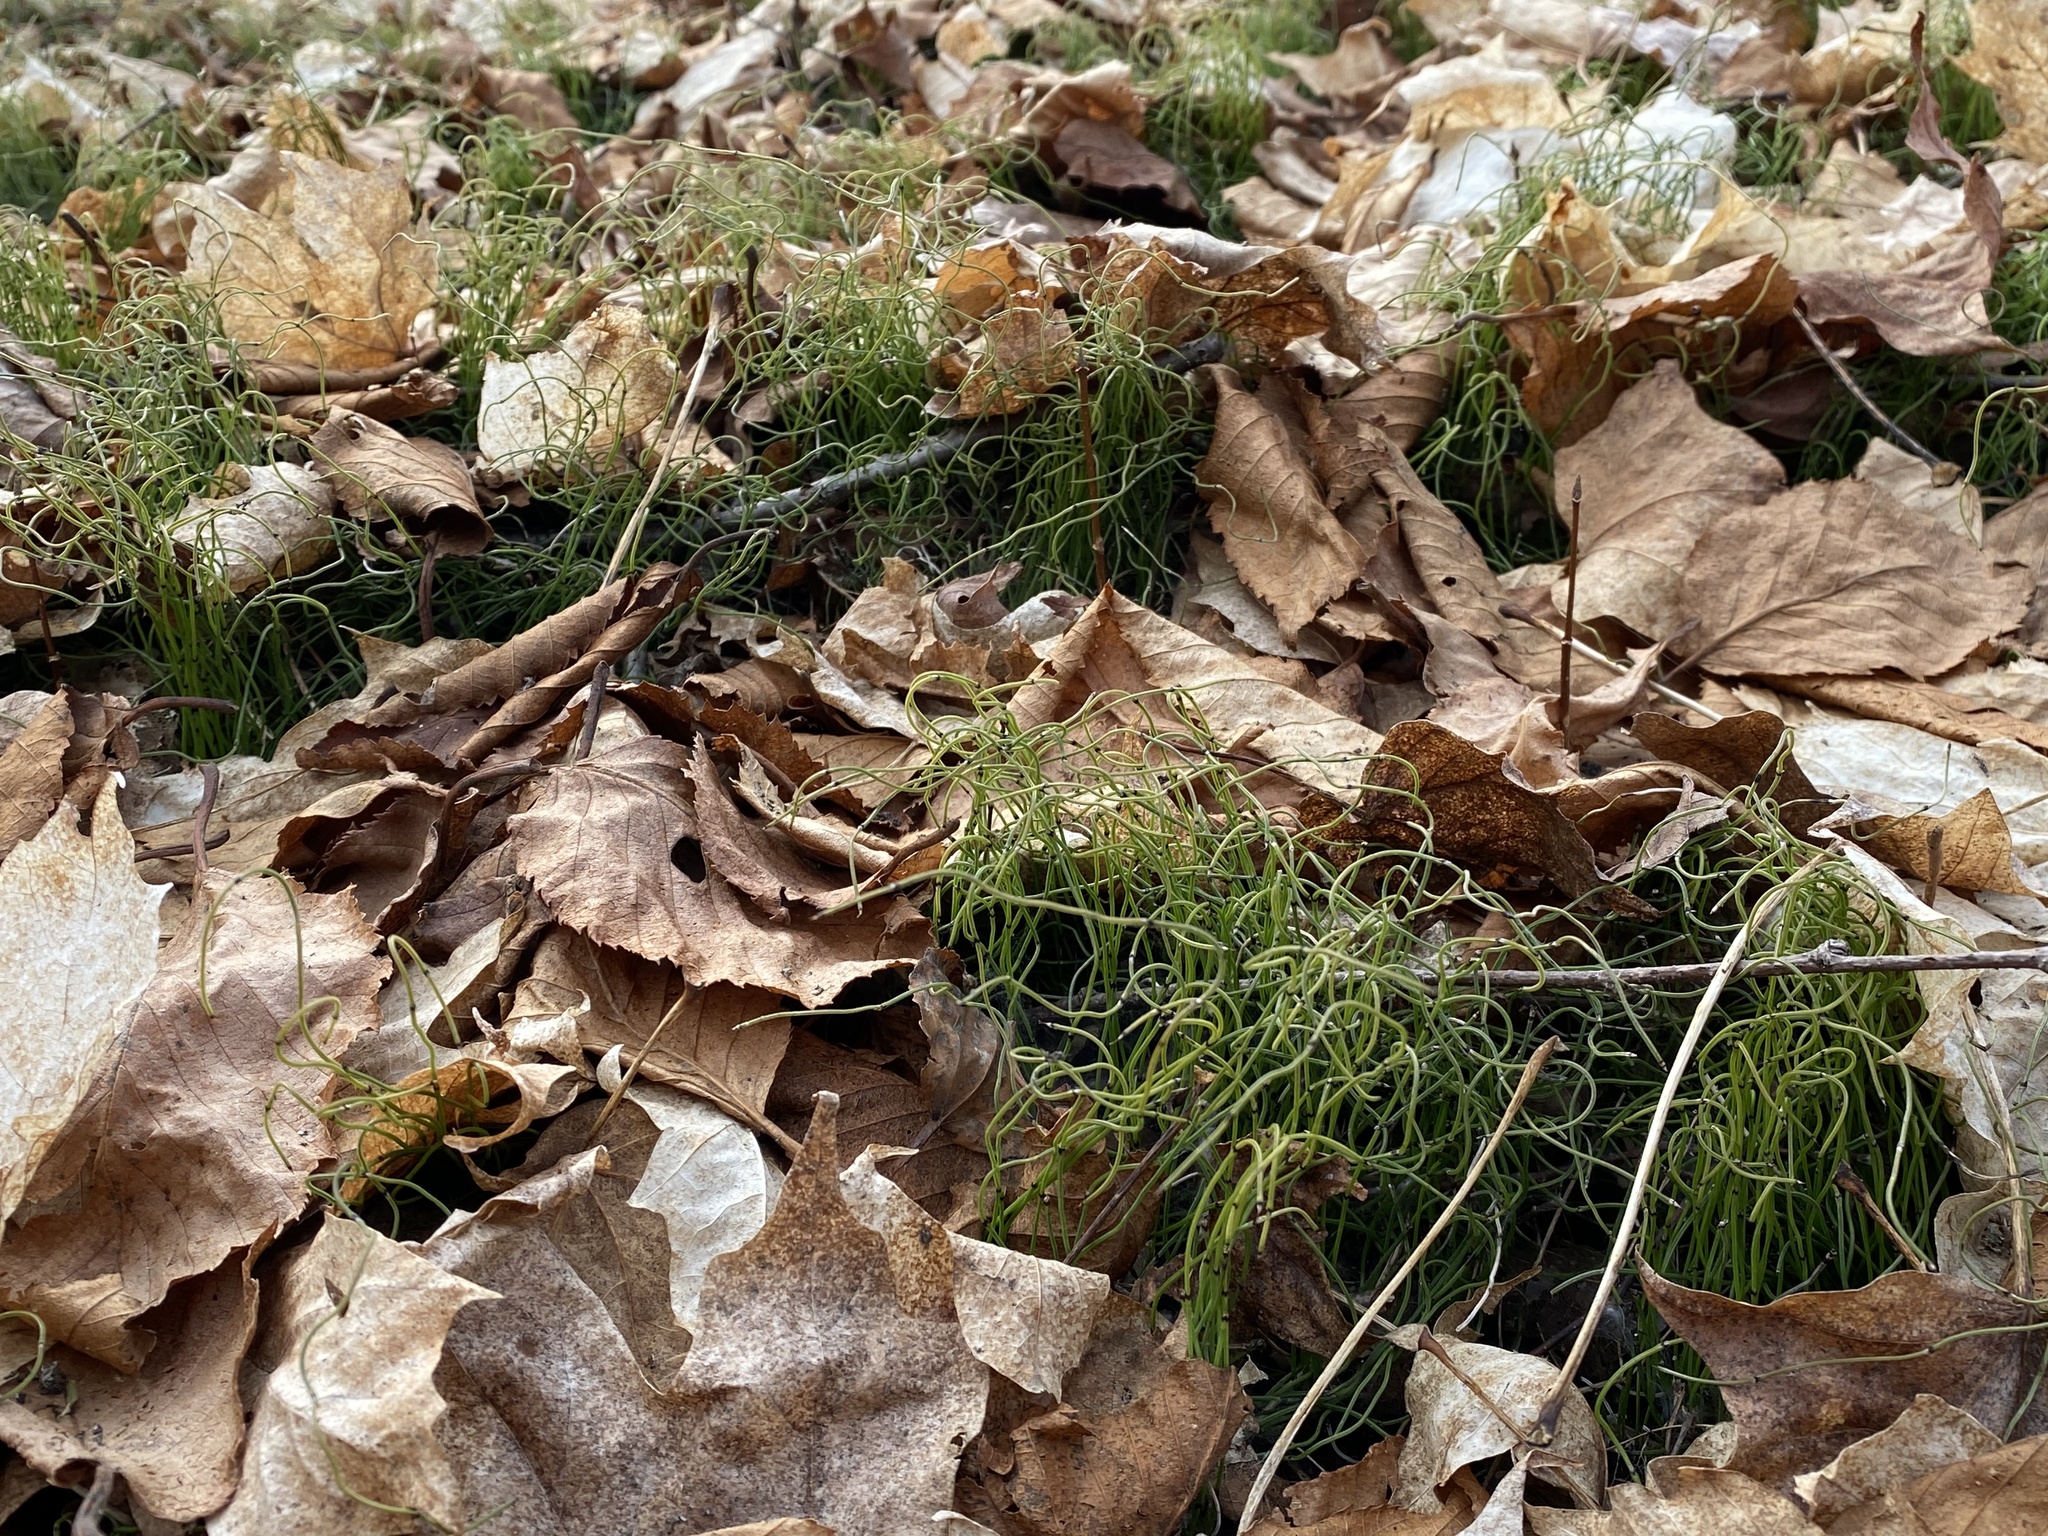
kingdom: Plantae
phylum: Tracheophyta
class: Polypodiopsida
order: Equisetales
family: Equisetaceae
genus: Equisetum
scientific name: Equisetum scirpoides
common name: Delicate horsetail
